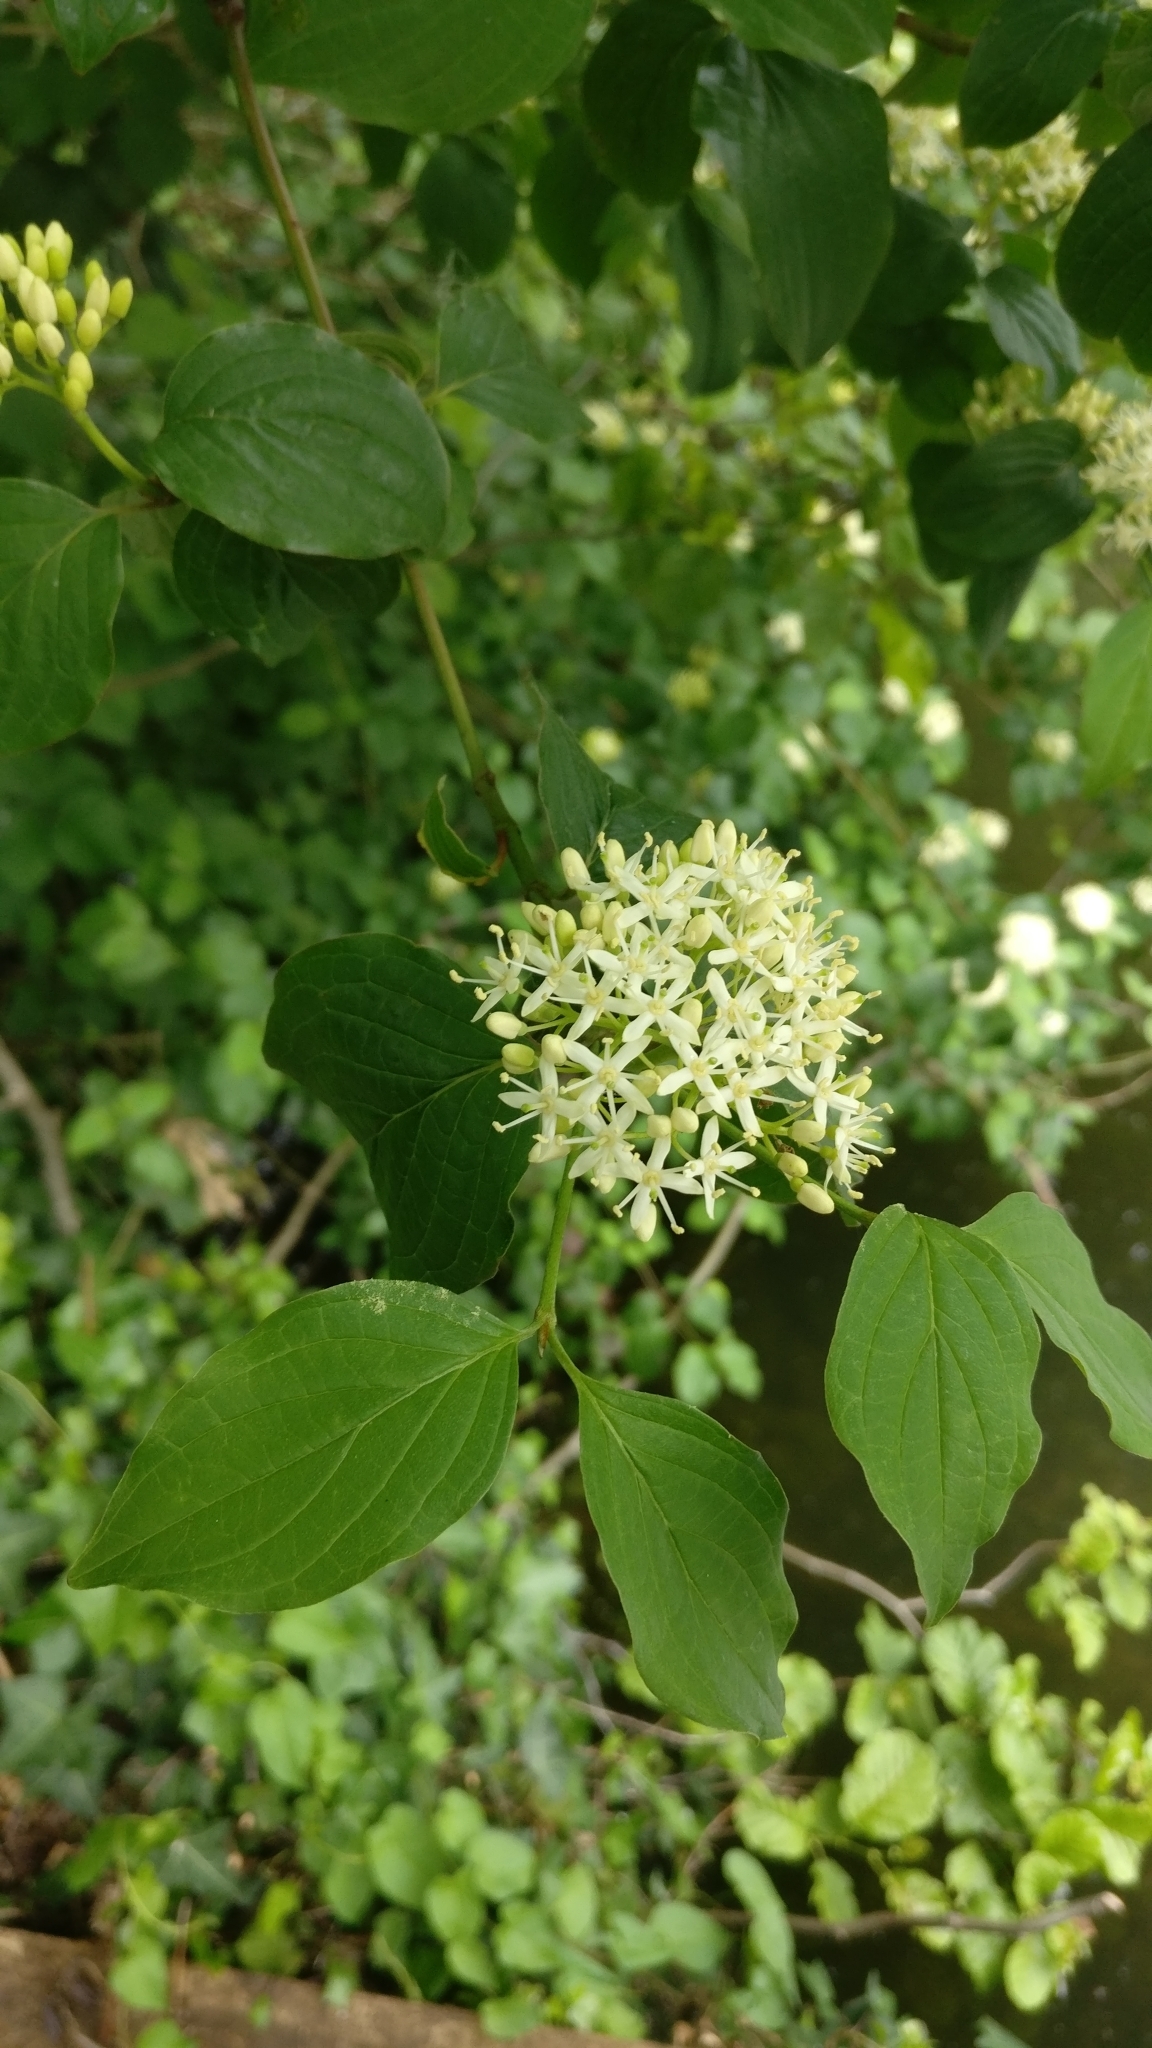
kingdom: Plantae
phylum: Tracheophyta
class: Magnoliopsida
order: Cornales
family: Cornaceae
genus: Cornus
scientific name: Cornus sanguinea
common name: Dogwood
